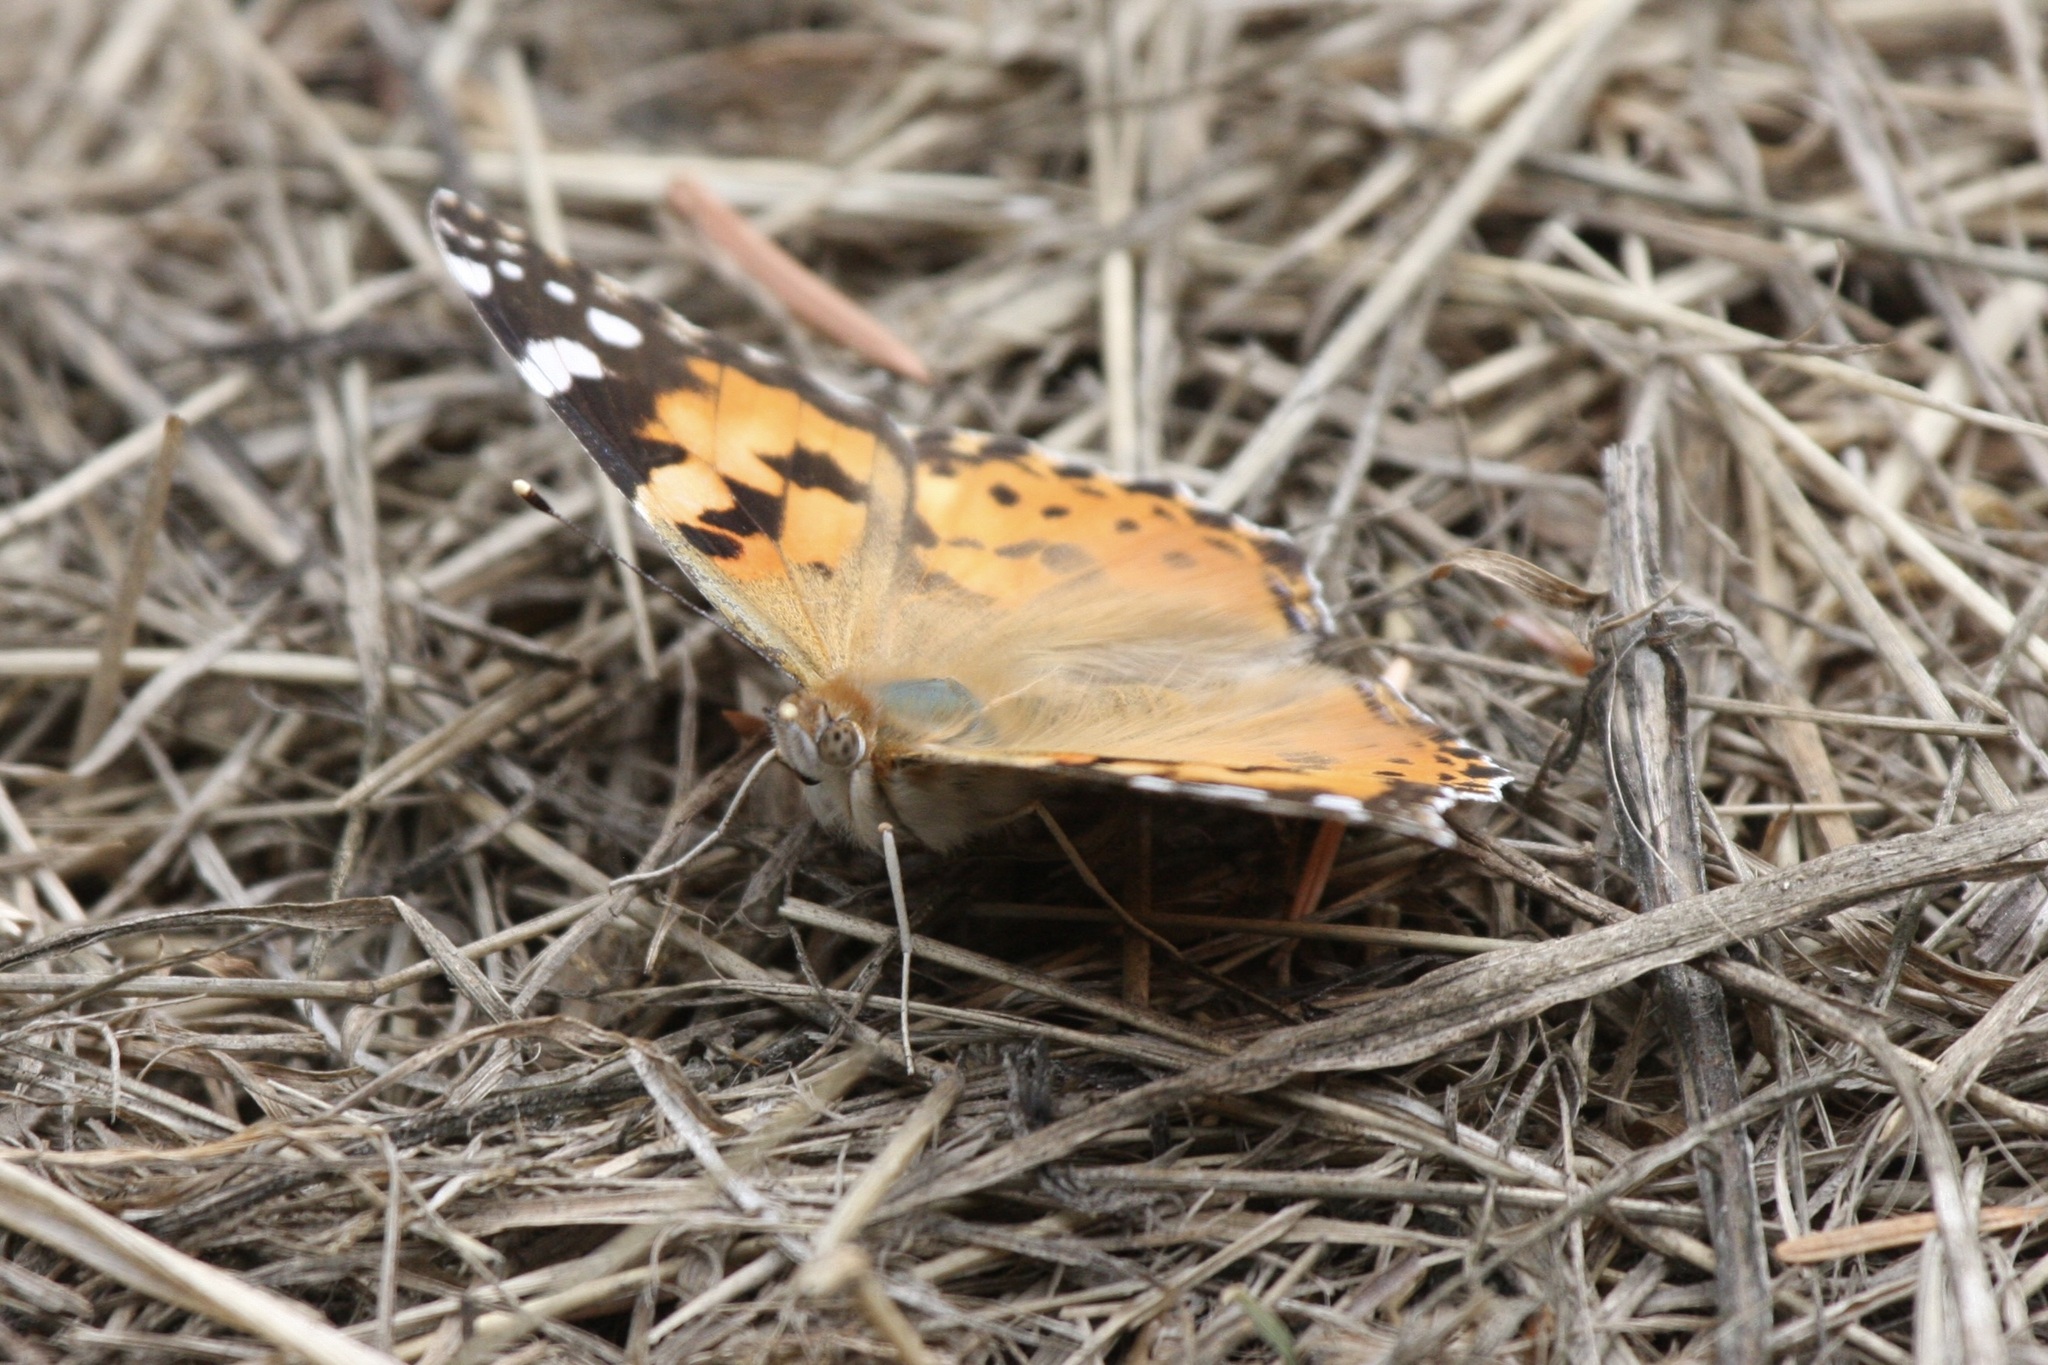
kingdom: Animalia
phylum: Arthropoda
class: Insecta
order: Lepidoptera
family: Nymphalidae
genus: Vanessa
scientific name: Vanessa cardui
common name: Painted lady
